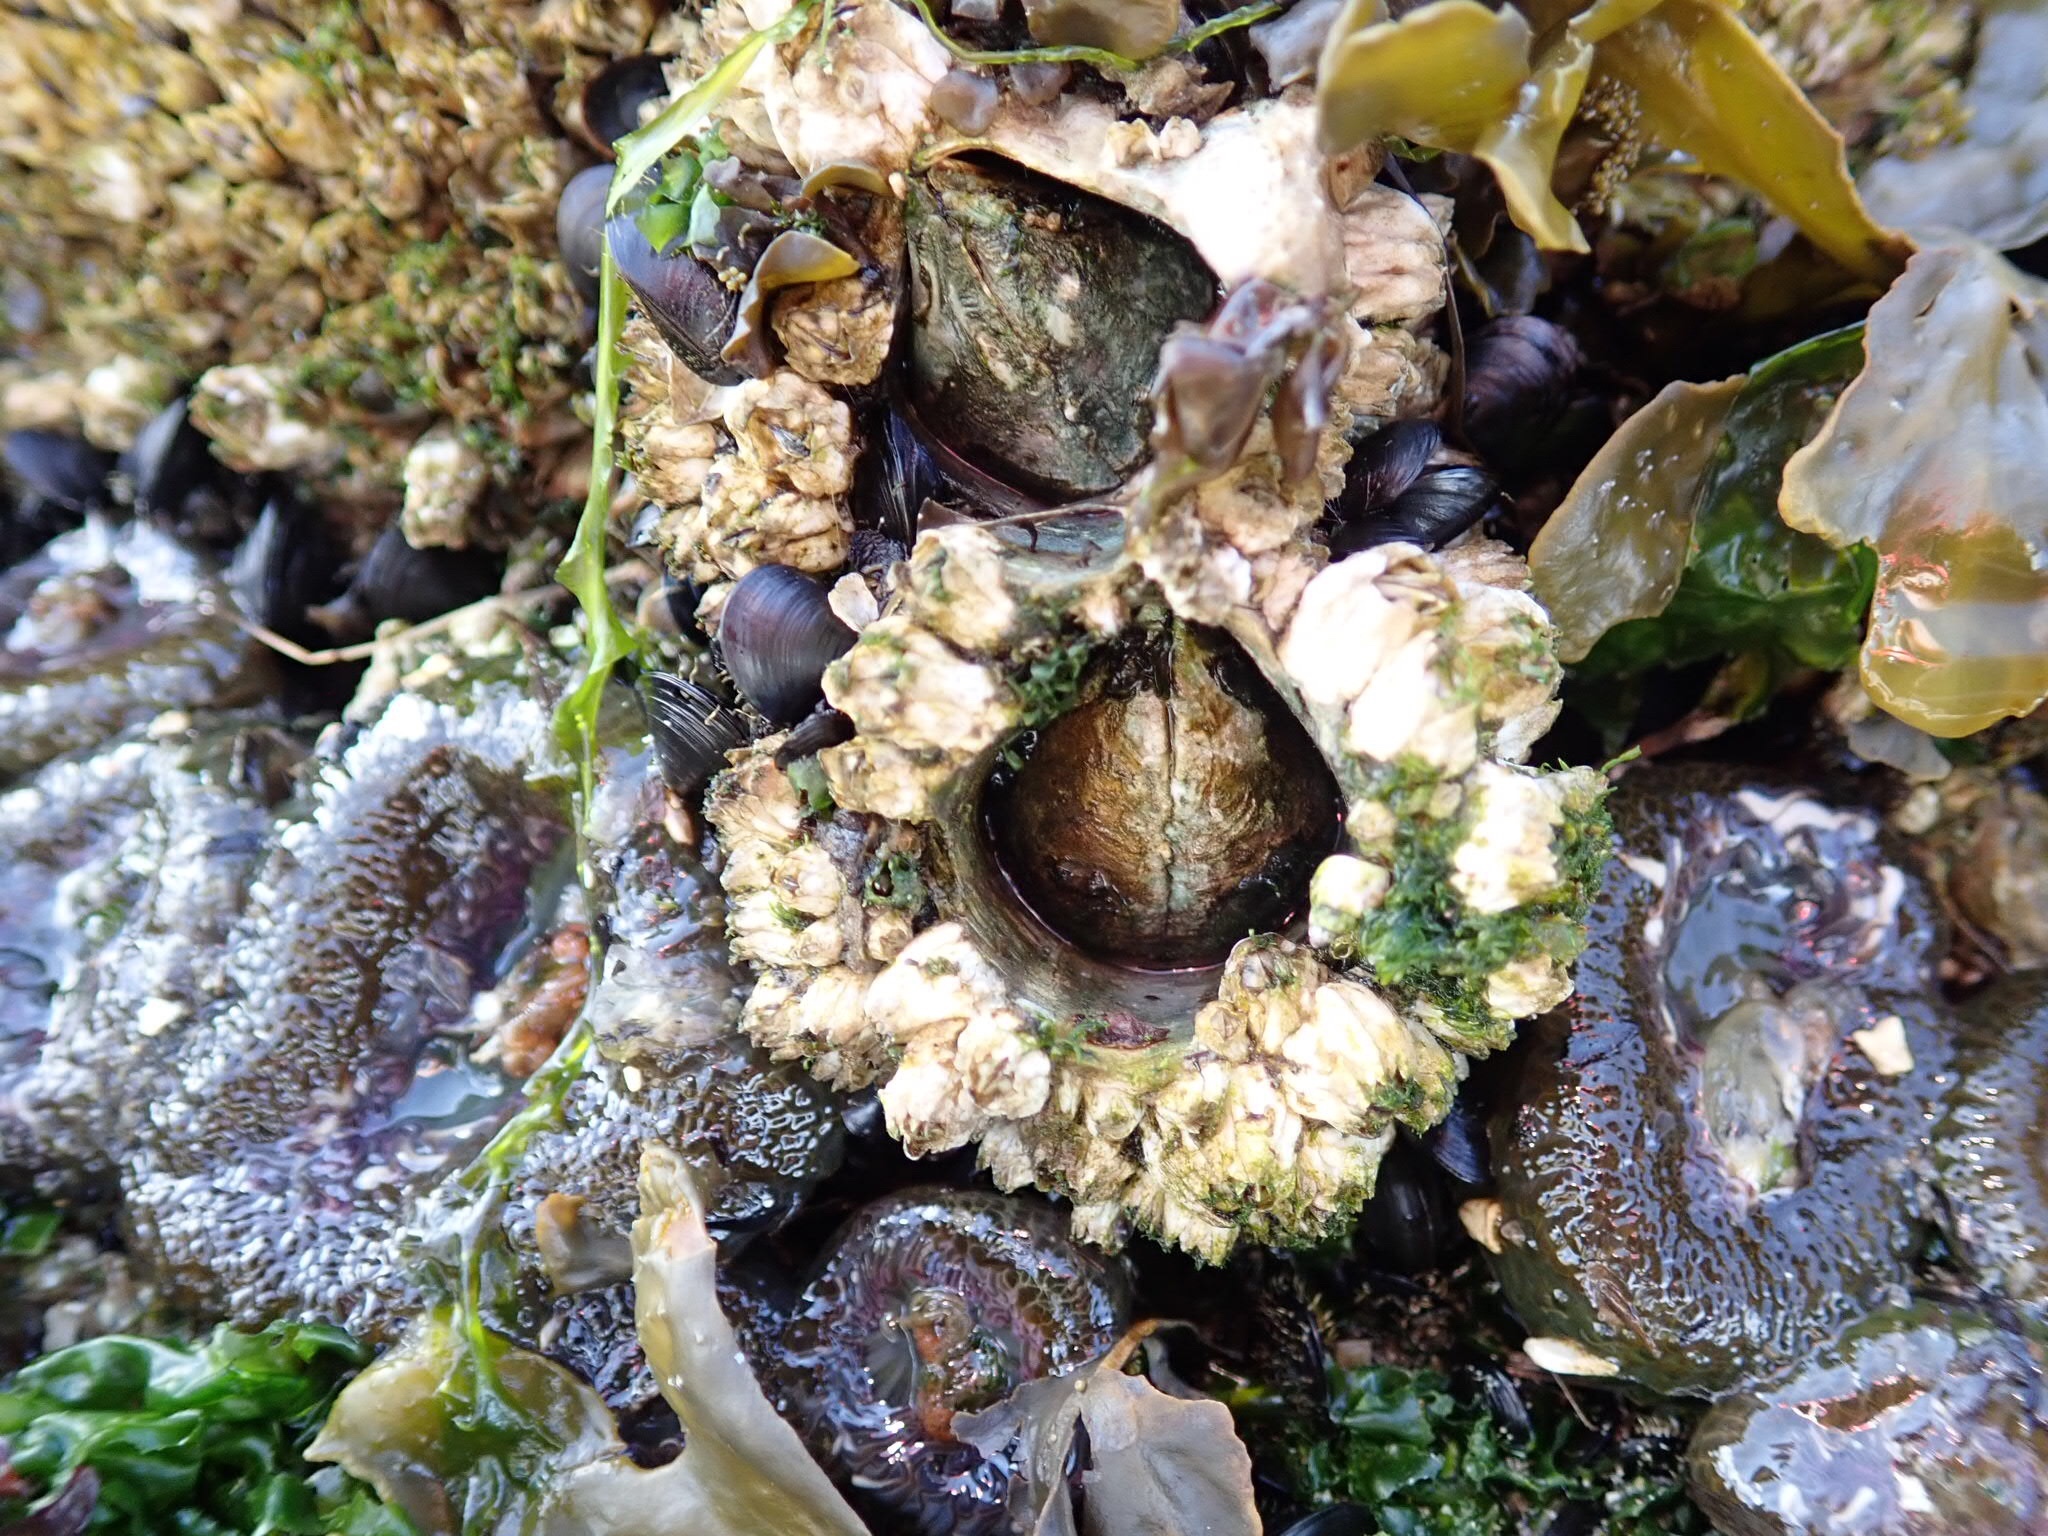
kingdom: Animalia
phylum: Arthropoda
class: Maxillopoda
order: Sessilia
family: Archaeobalanidae
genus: Semibalanus
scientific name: Semibalanus cariosus
